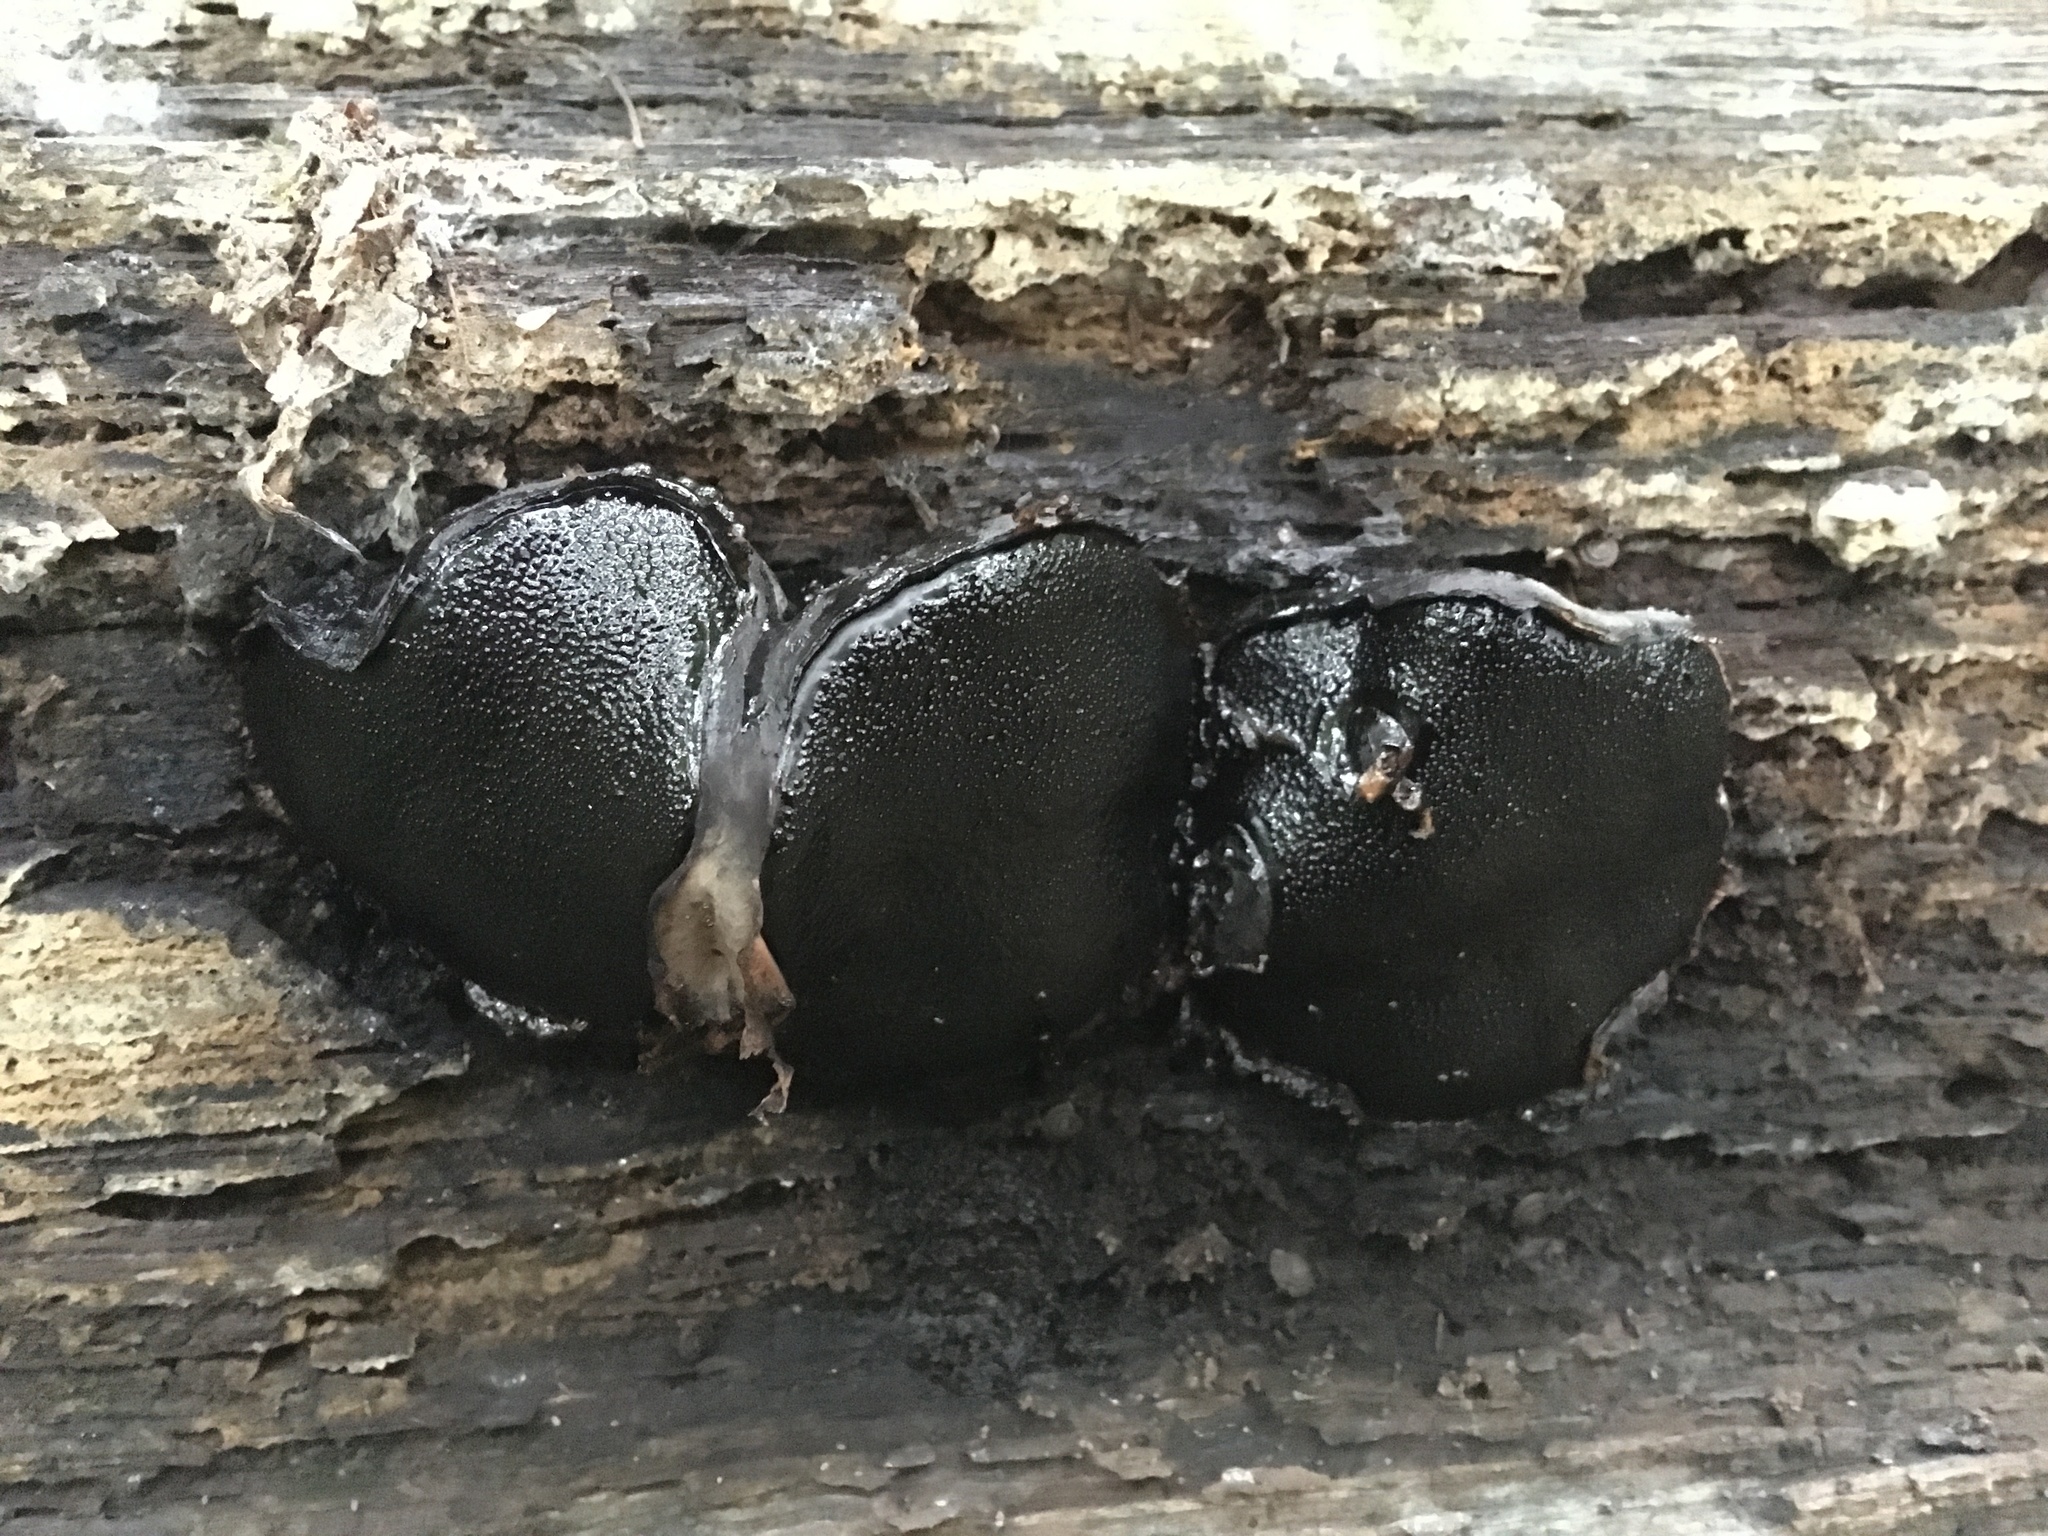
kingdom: Fungi
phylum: Ascomycota
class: Sordariomycetes
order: Boliniales
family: Boliniaceae
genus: Camarops
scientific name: Camarops petersii
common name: Dog's nose fungus
